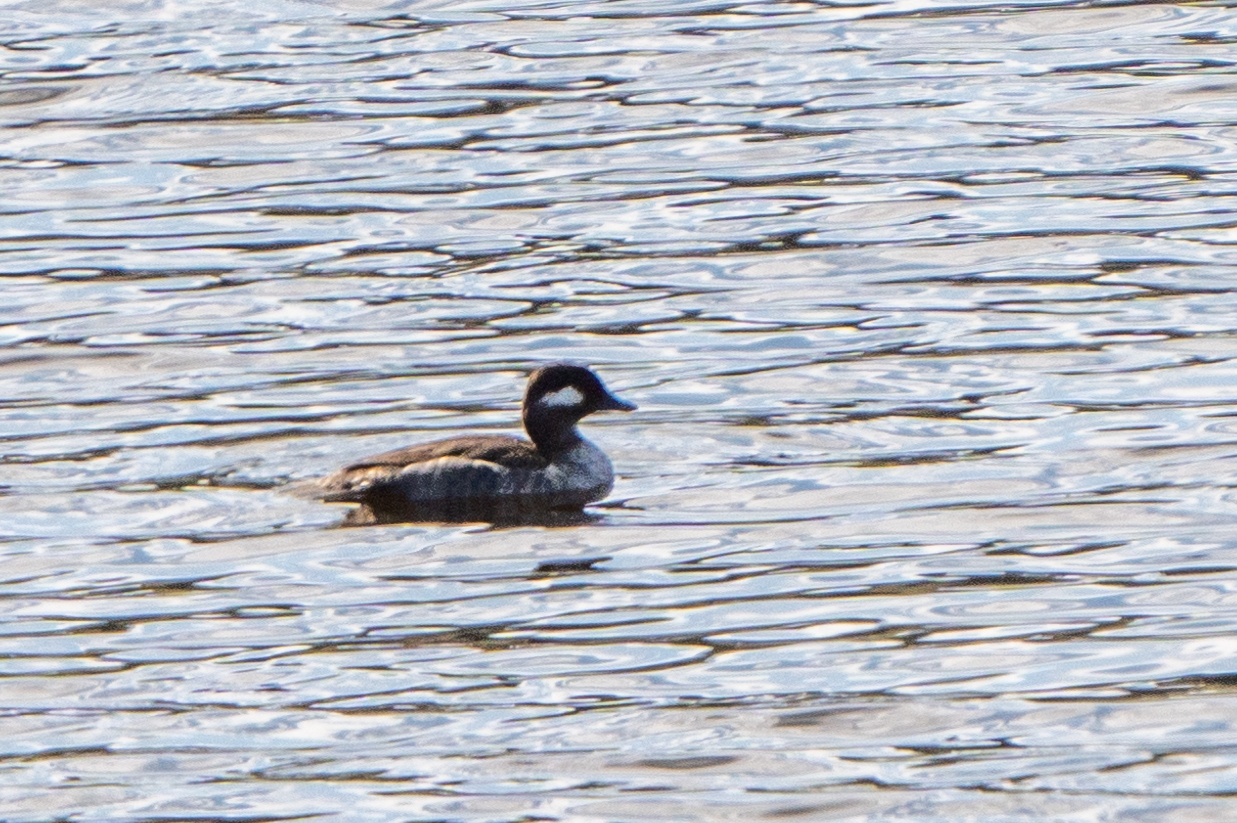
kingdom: Animalia
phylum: Chordata
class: Aves
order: Anseriformes
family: Anatidae
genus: Bucephala
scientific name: Bucephala albeola
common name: Bufflehead
